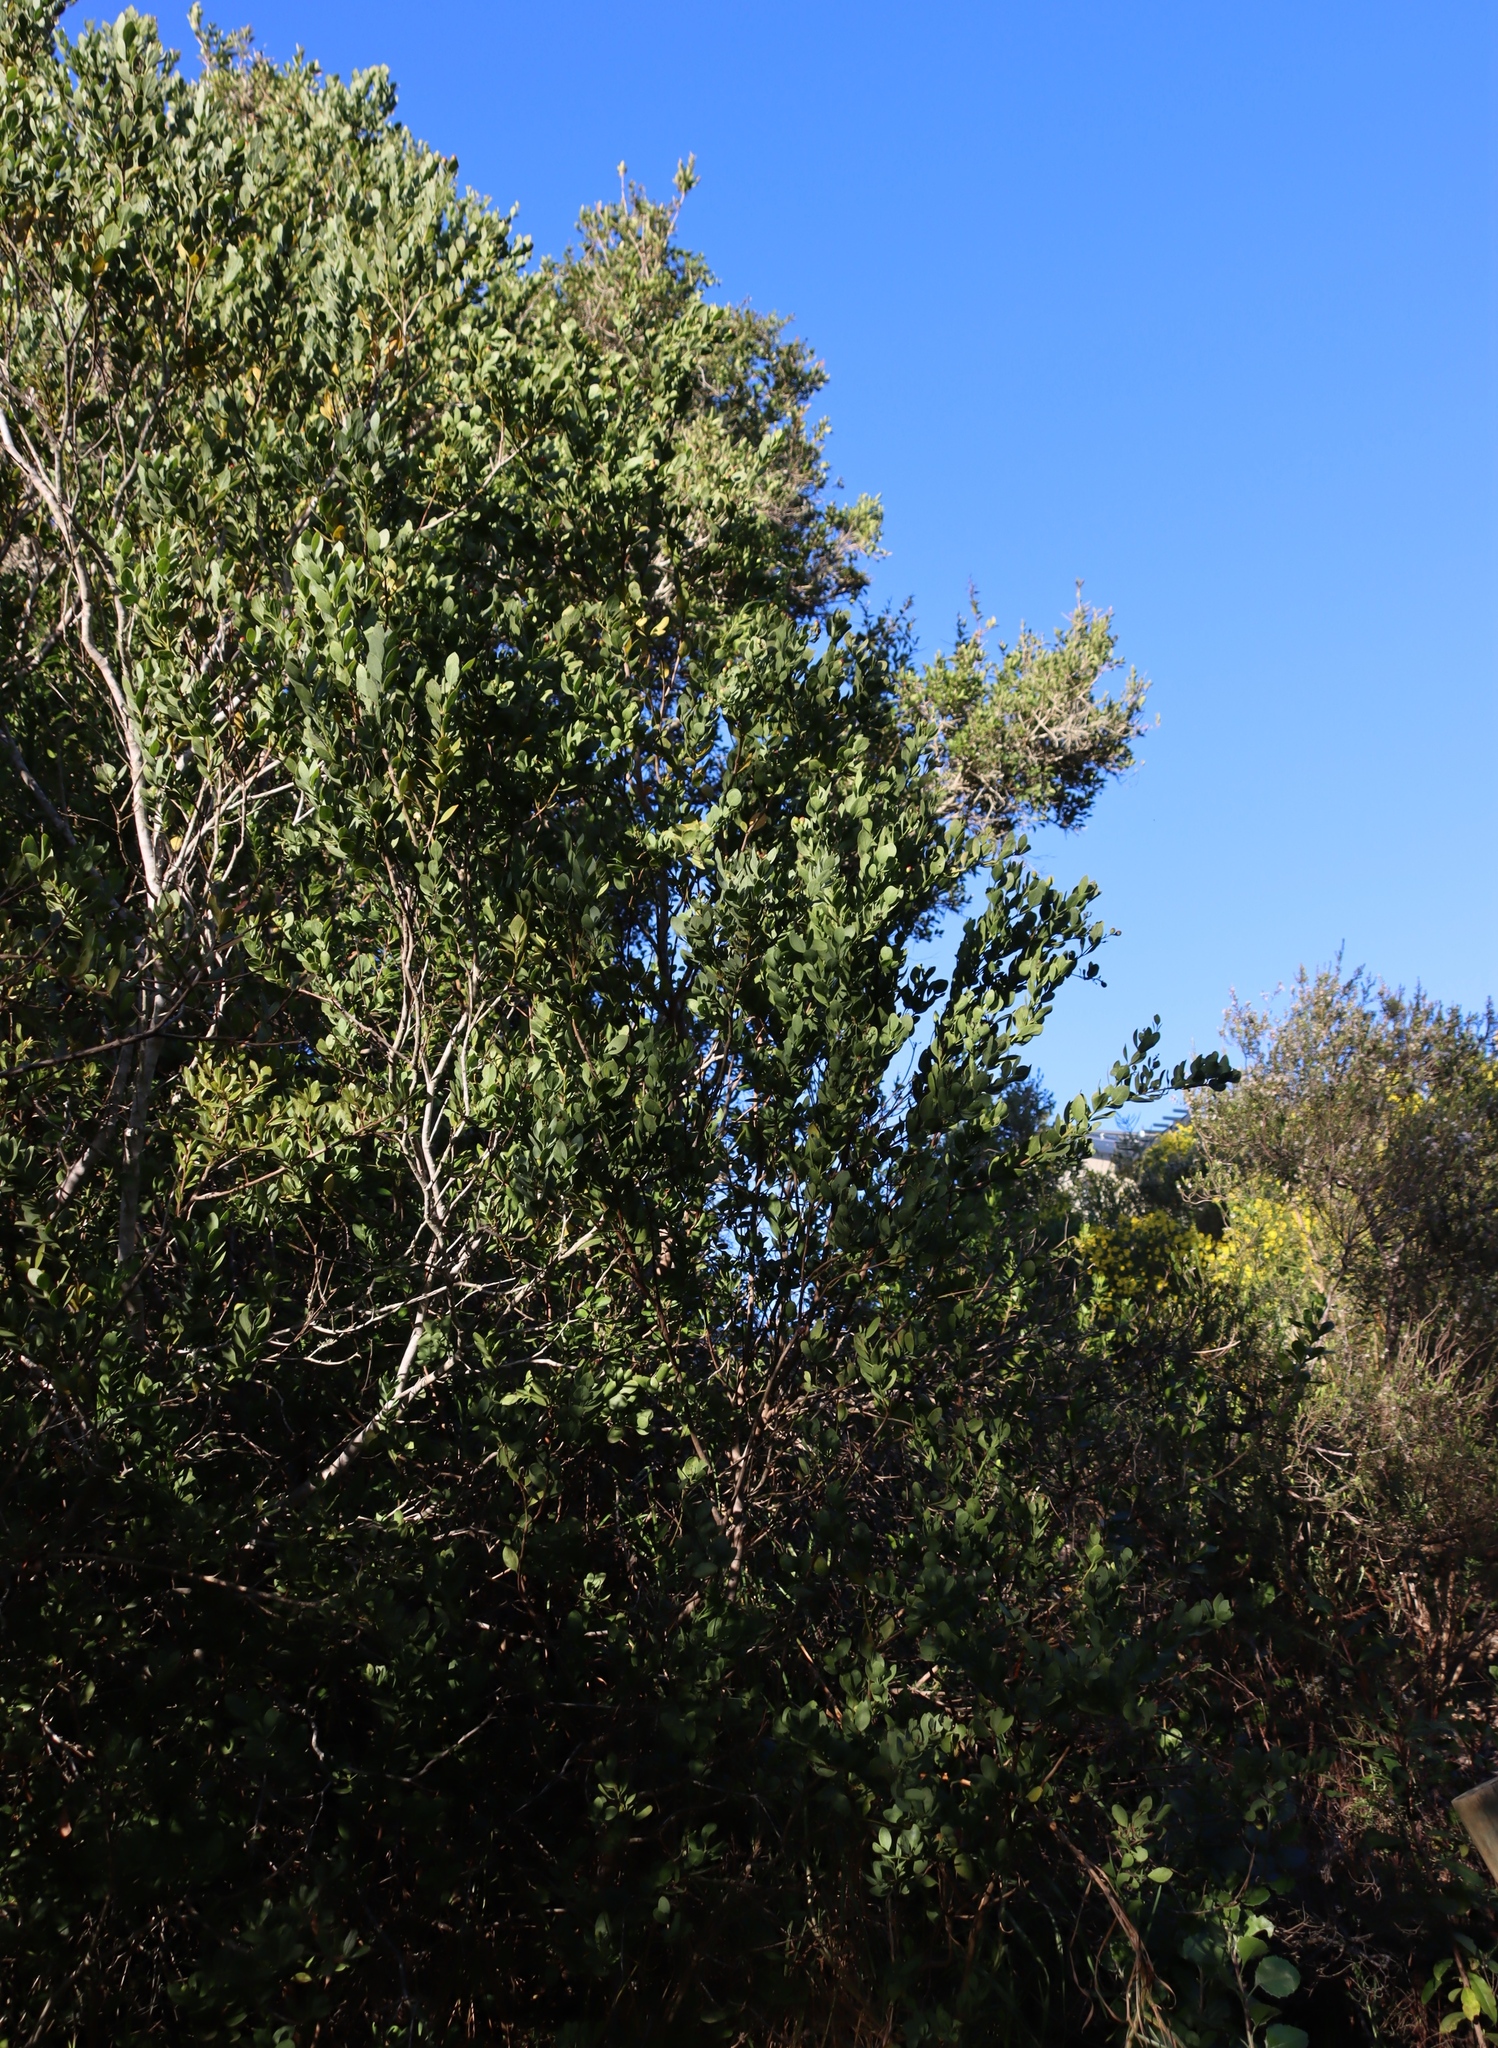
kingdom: Plantae
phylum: Tracheophyta
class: Magnoliopsida
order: Santalales
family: Santalaceae
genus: Osyris
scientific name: Osyris compressa
